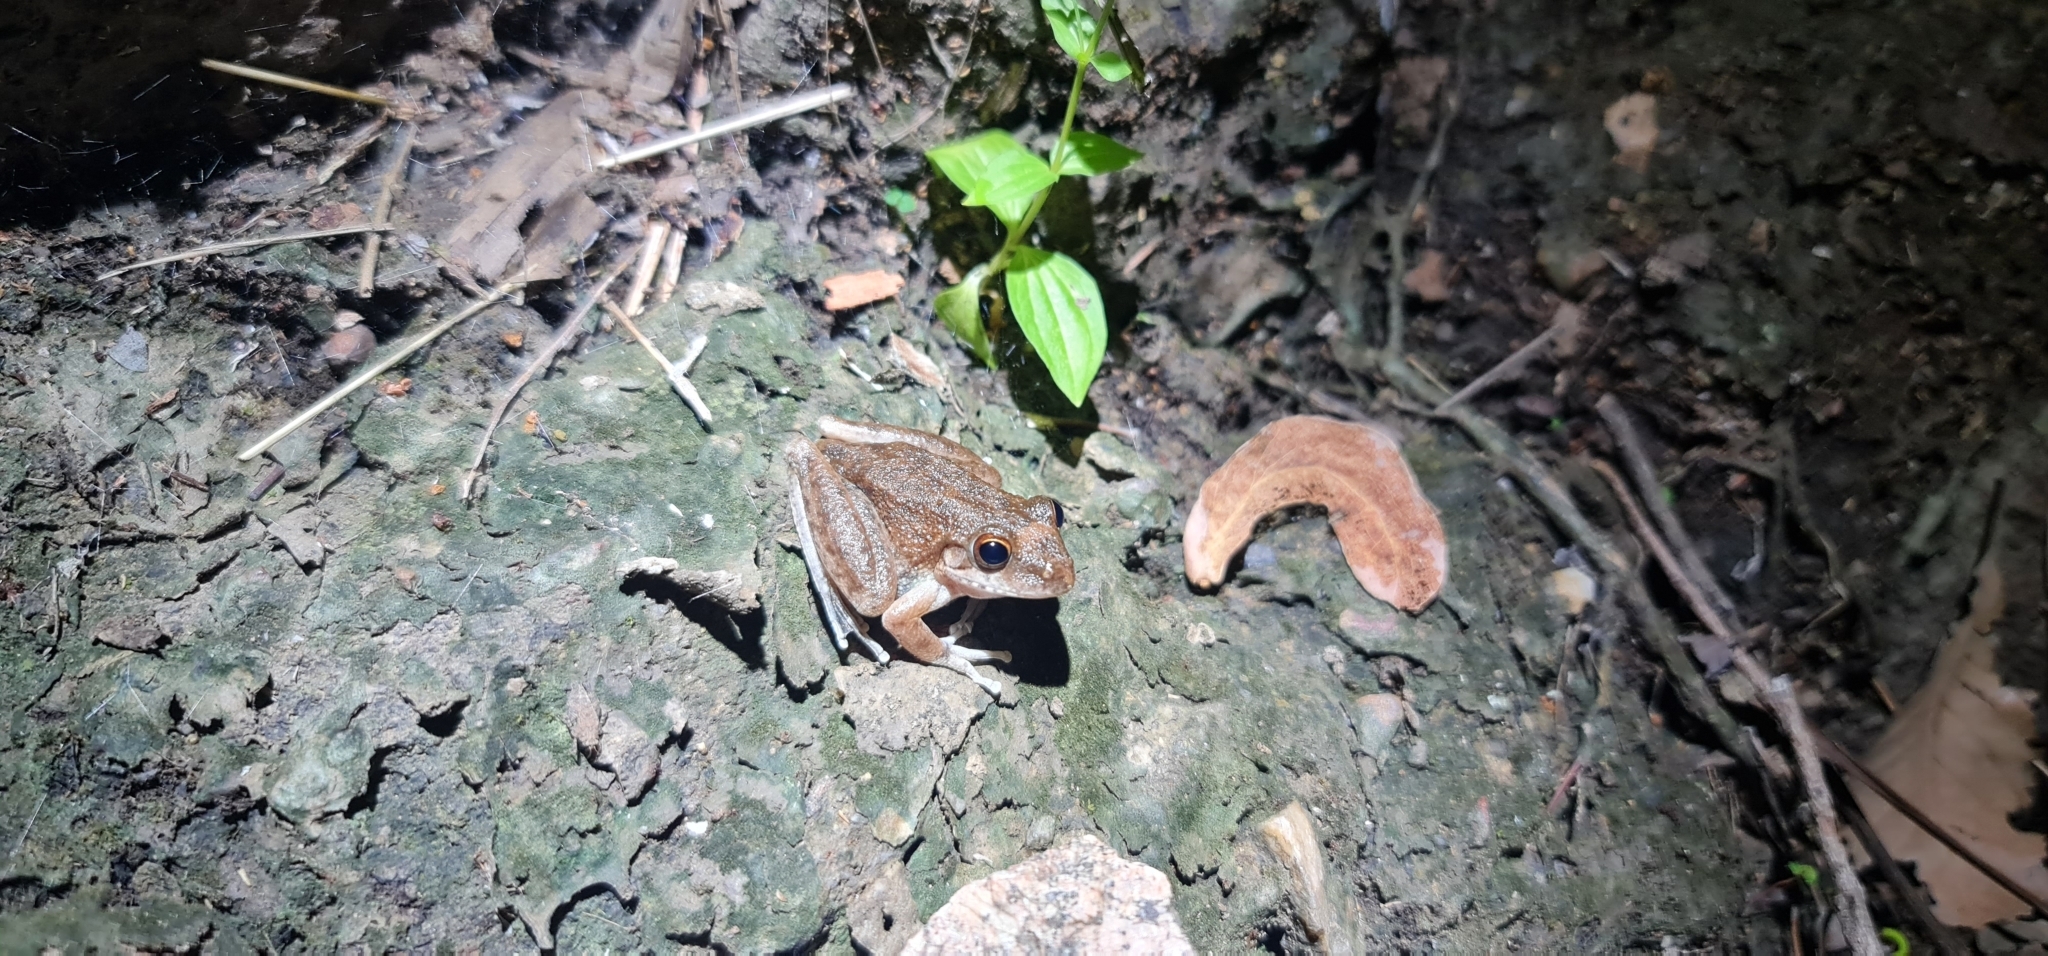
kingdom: Animalia
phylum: Chordata
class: Amphibia
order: Anura
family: Pelodryadidae
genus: Litoria
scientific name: Litoria coplandi
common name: Copland’s rock frog
